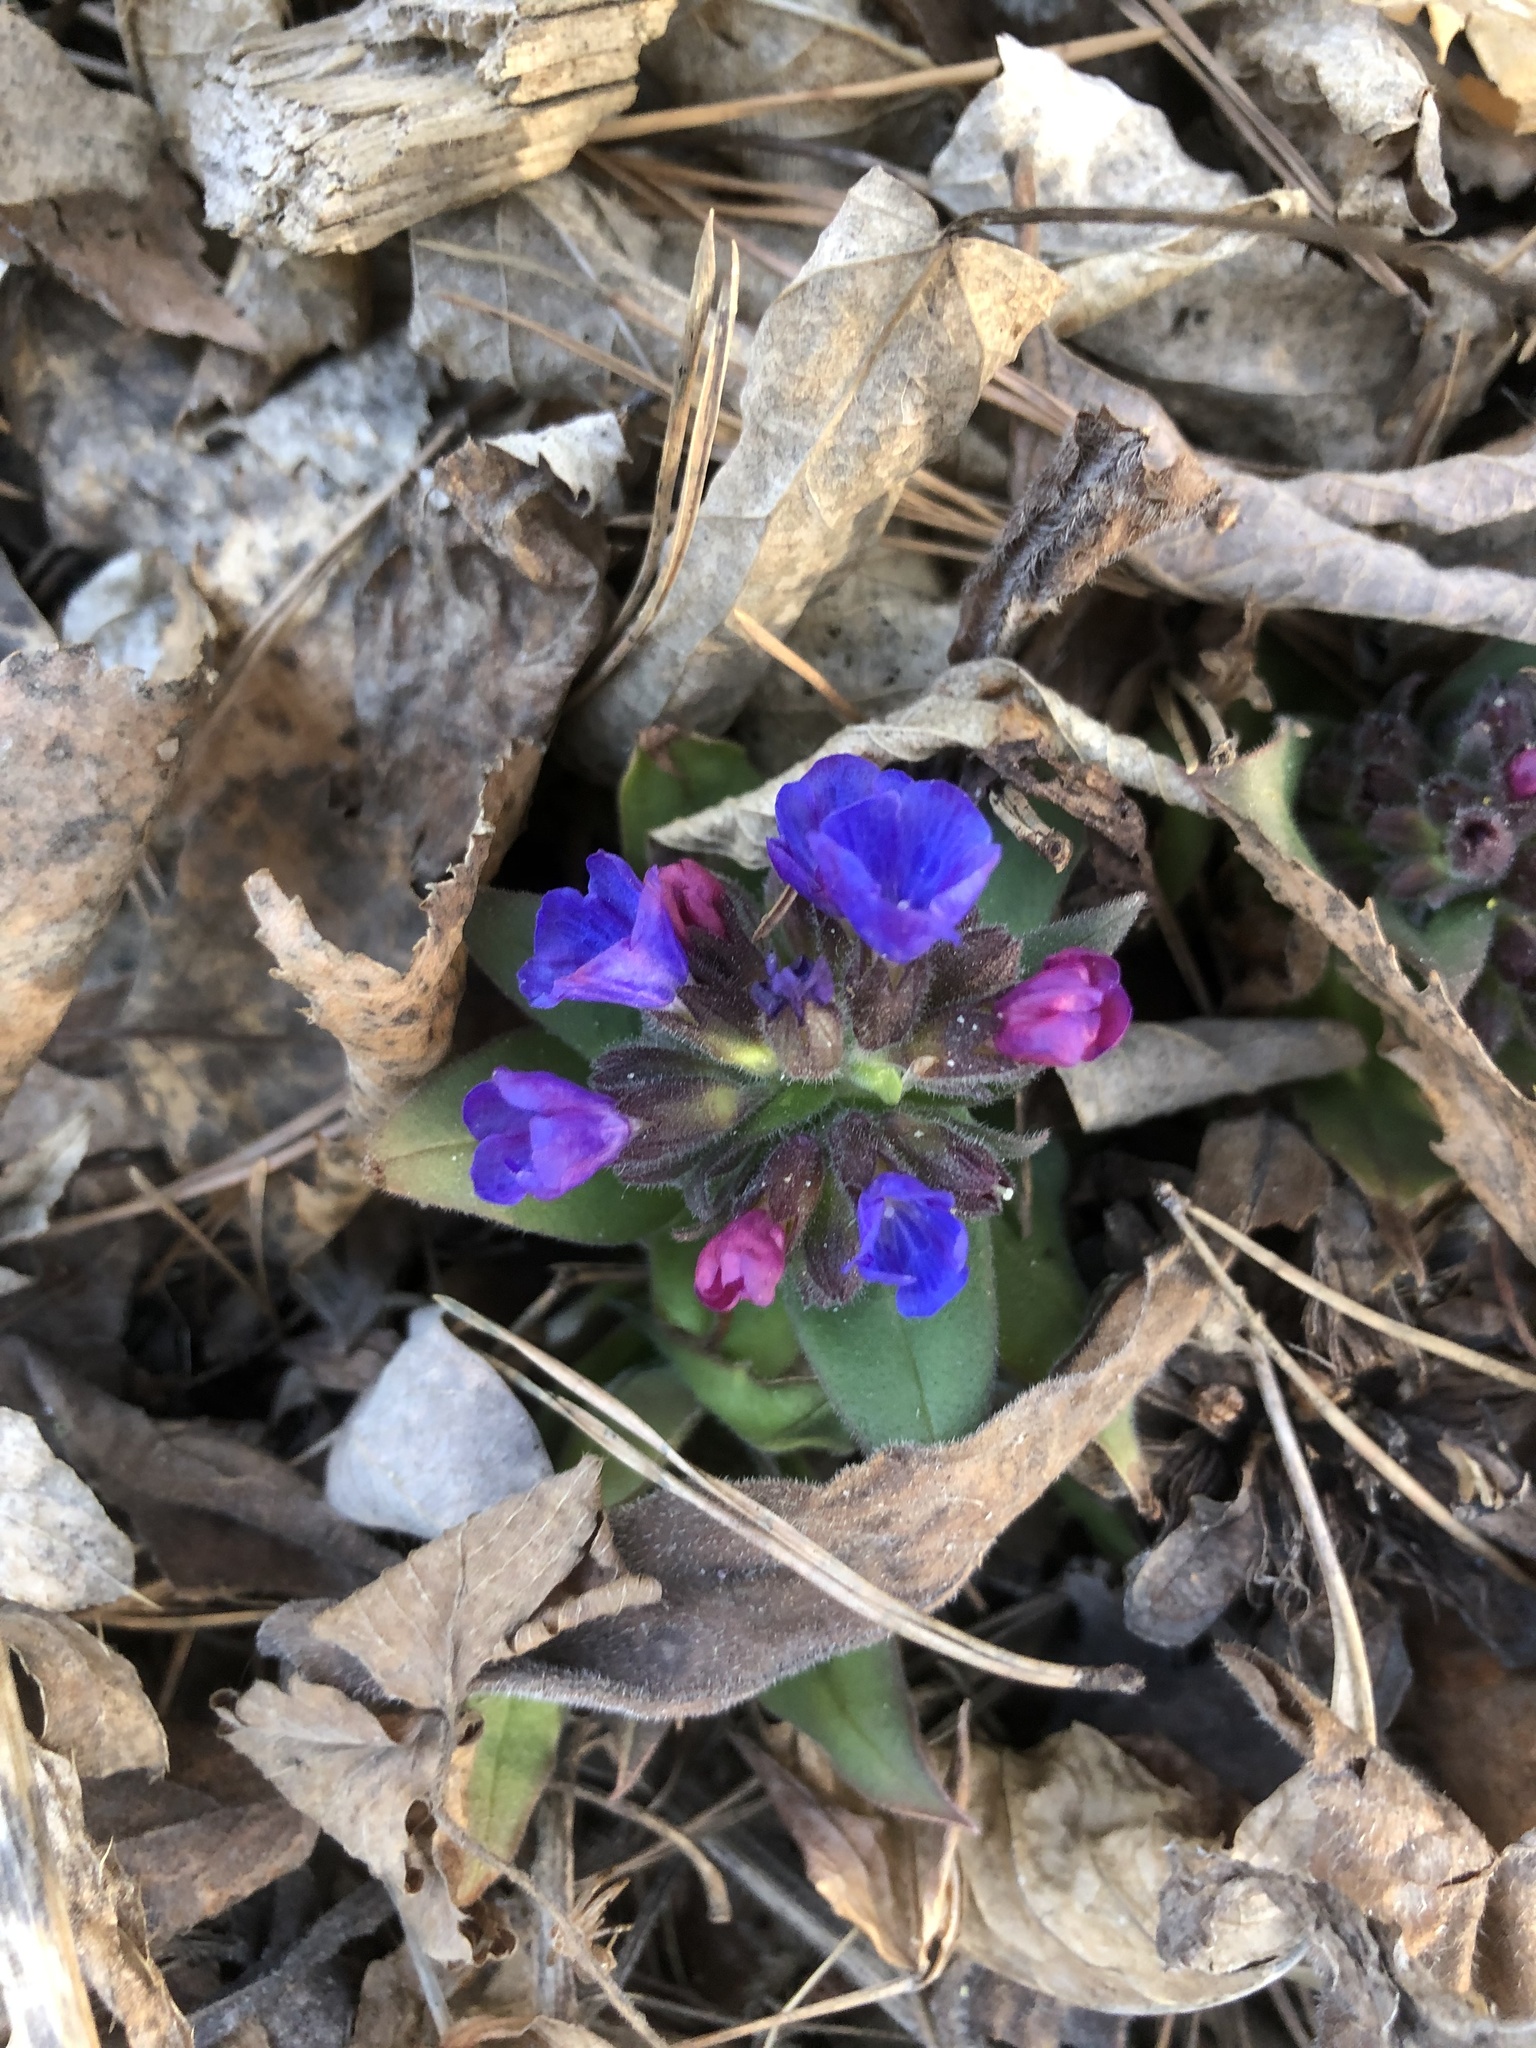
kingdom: Plantae
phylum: Tracheophyta
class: Magnoliopsida
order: Boraginales
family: Boraginaceae
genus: Pulmonaria
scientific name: Pulmonaria mollis
